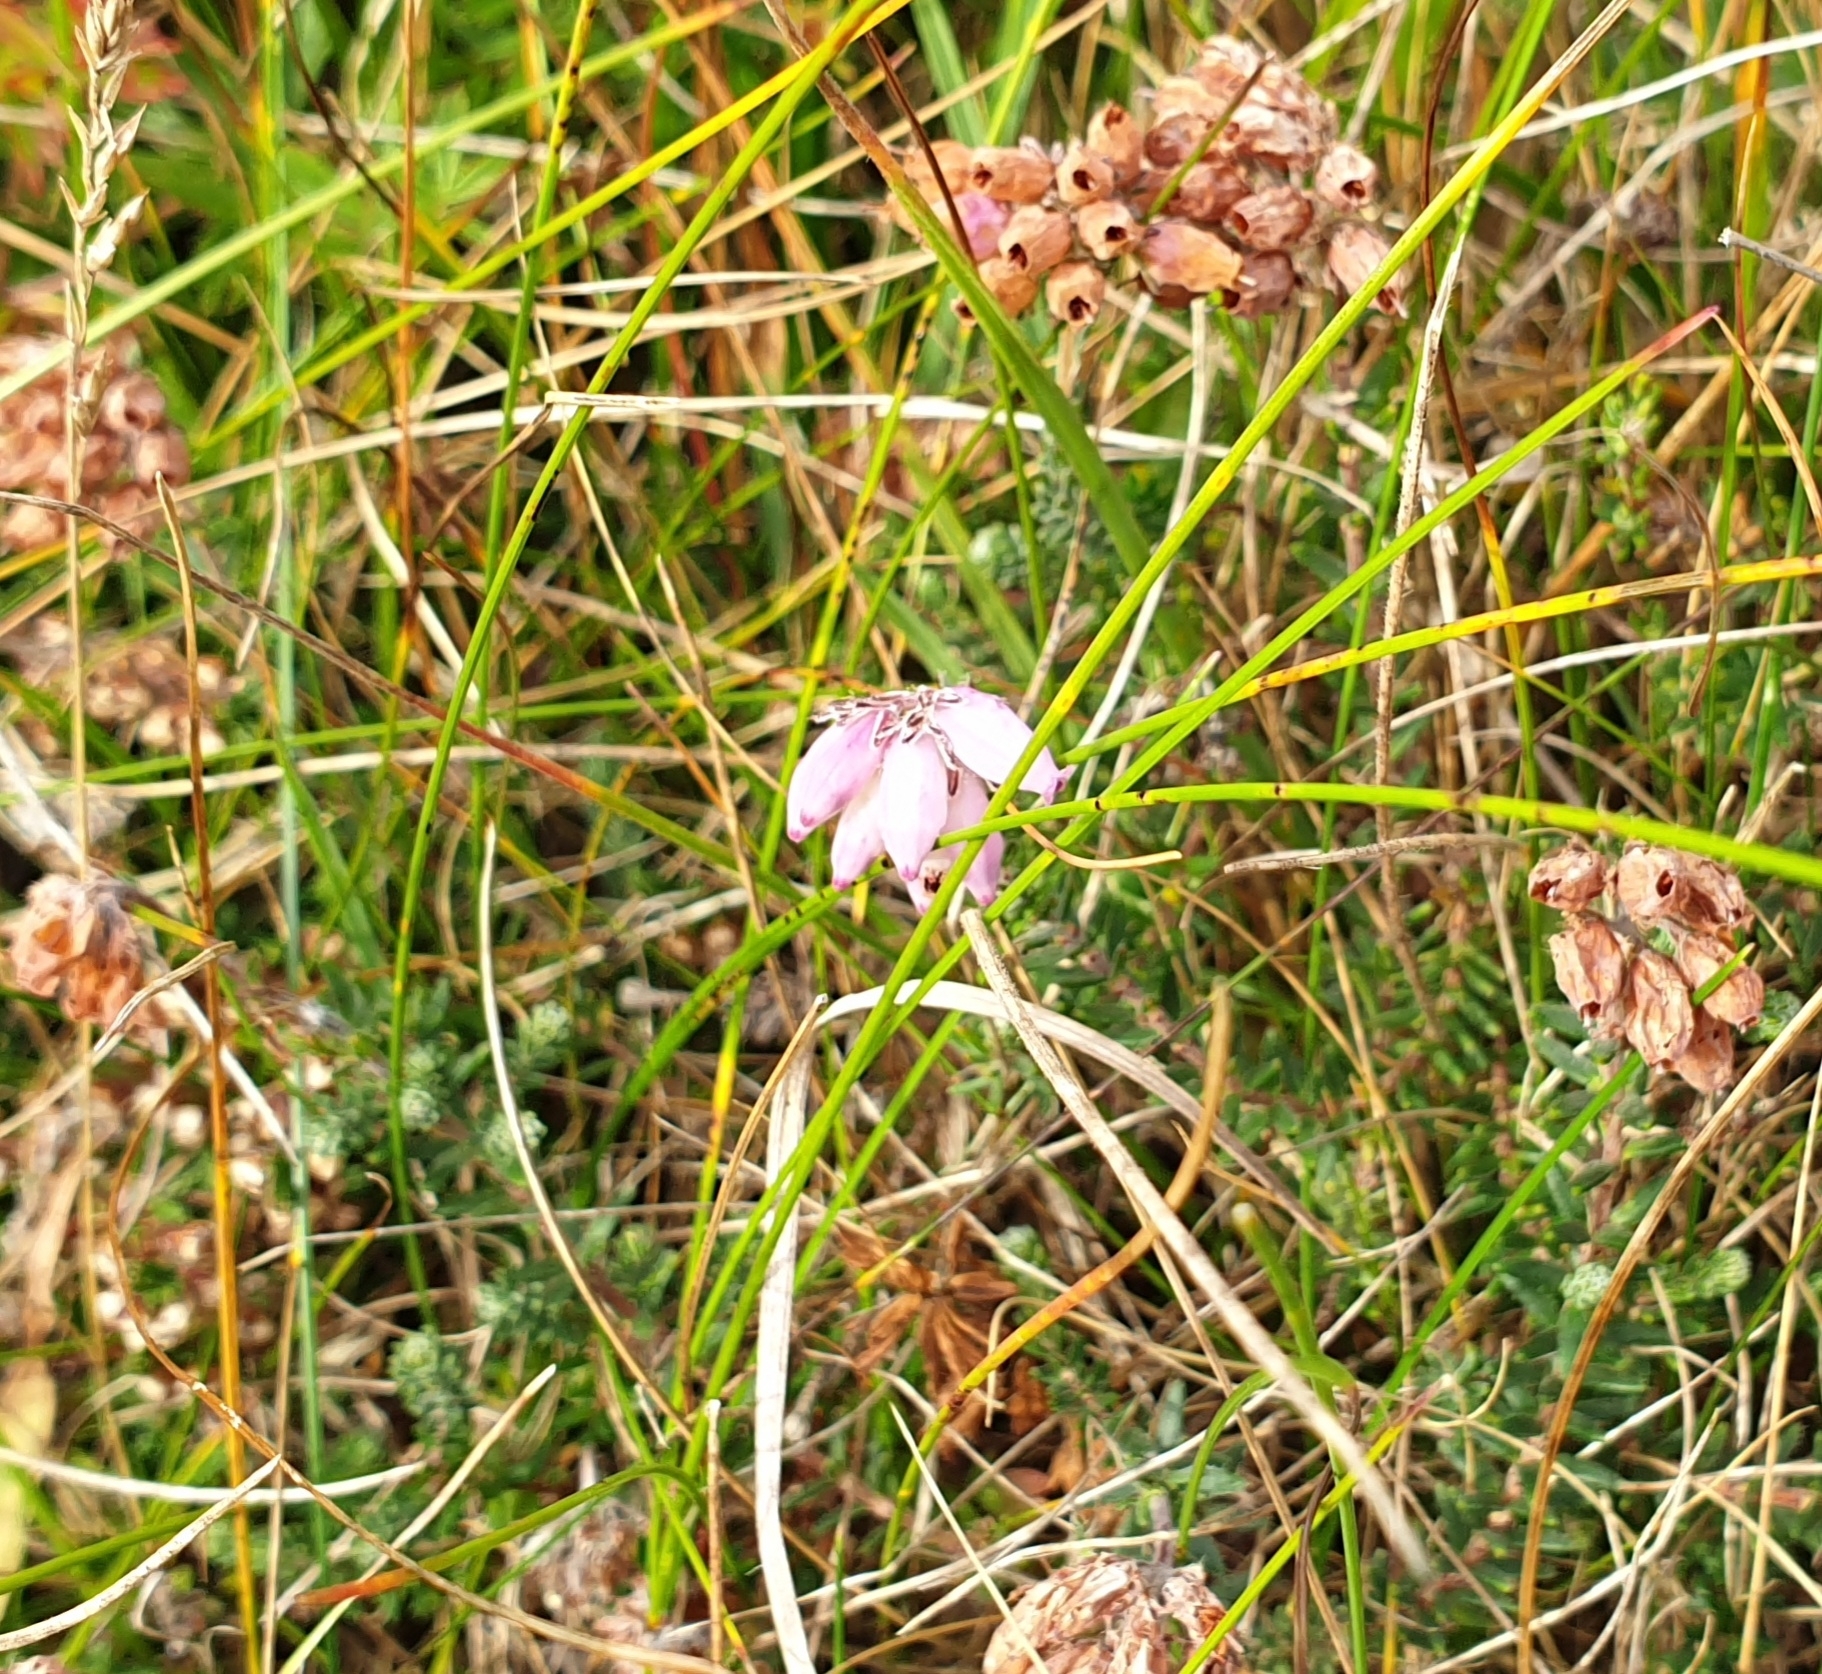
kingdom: Plantae
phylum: Tracheophyta
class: Magnoliopsida
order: Ericales
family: Ericaceae
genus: Erica
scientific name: Erica tetralix
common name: Cross-leaved heath
